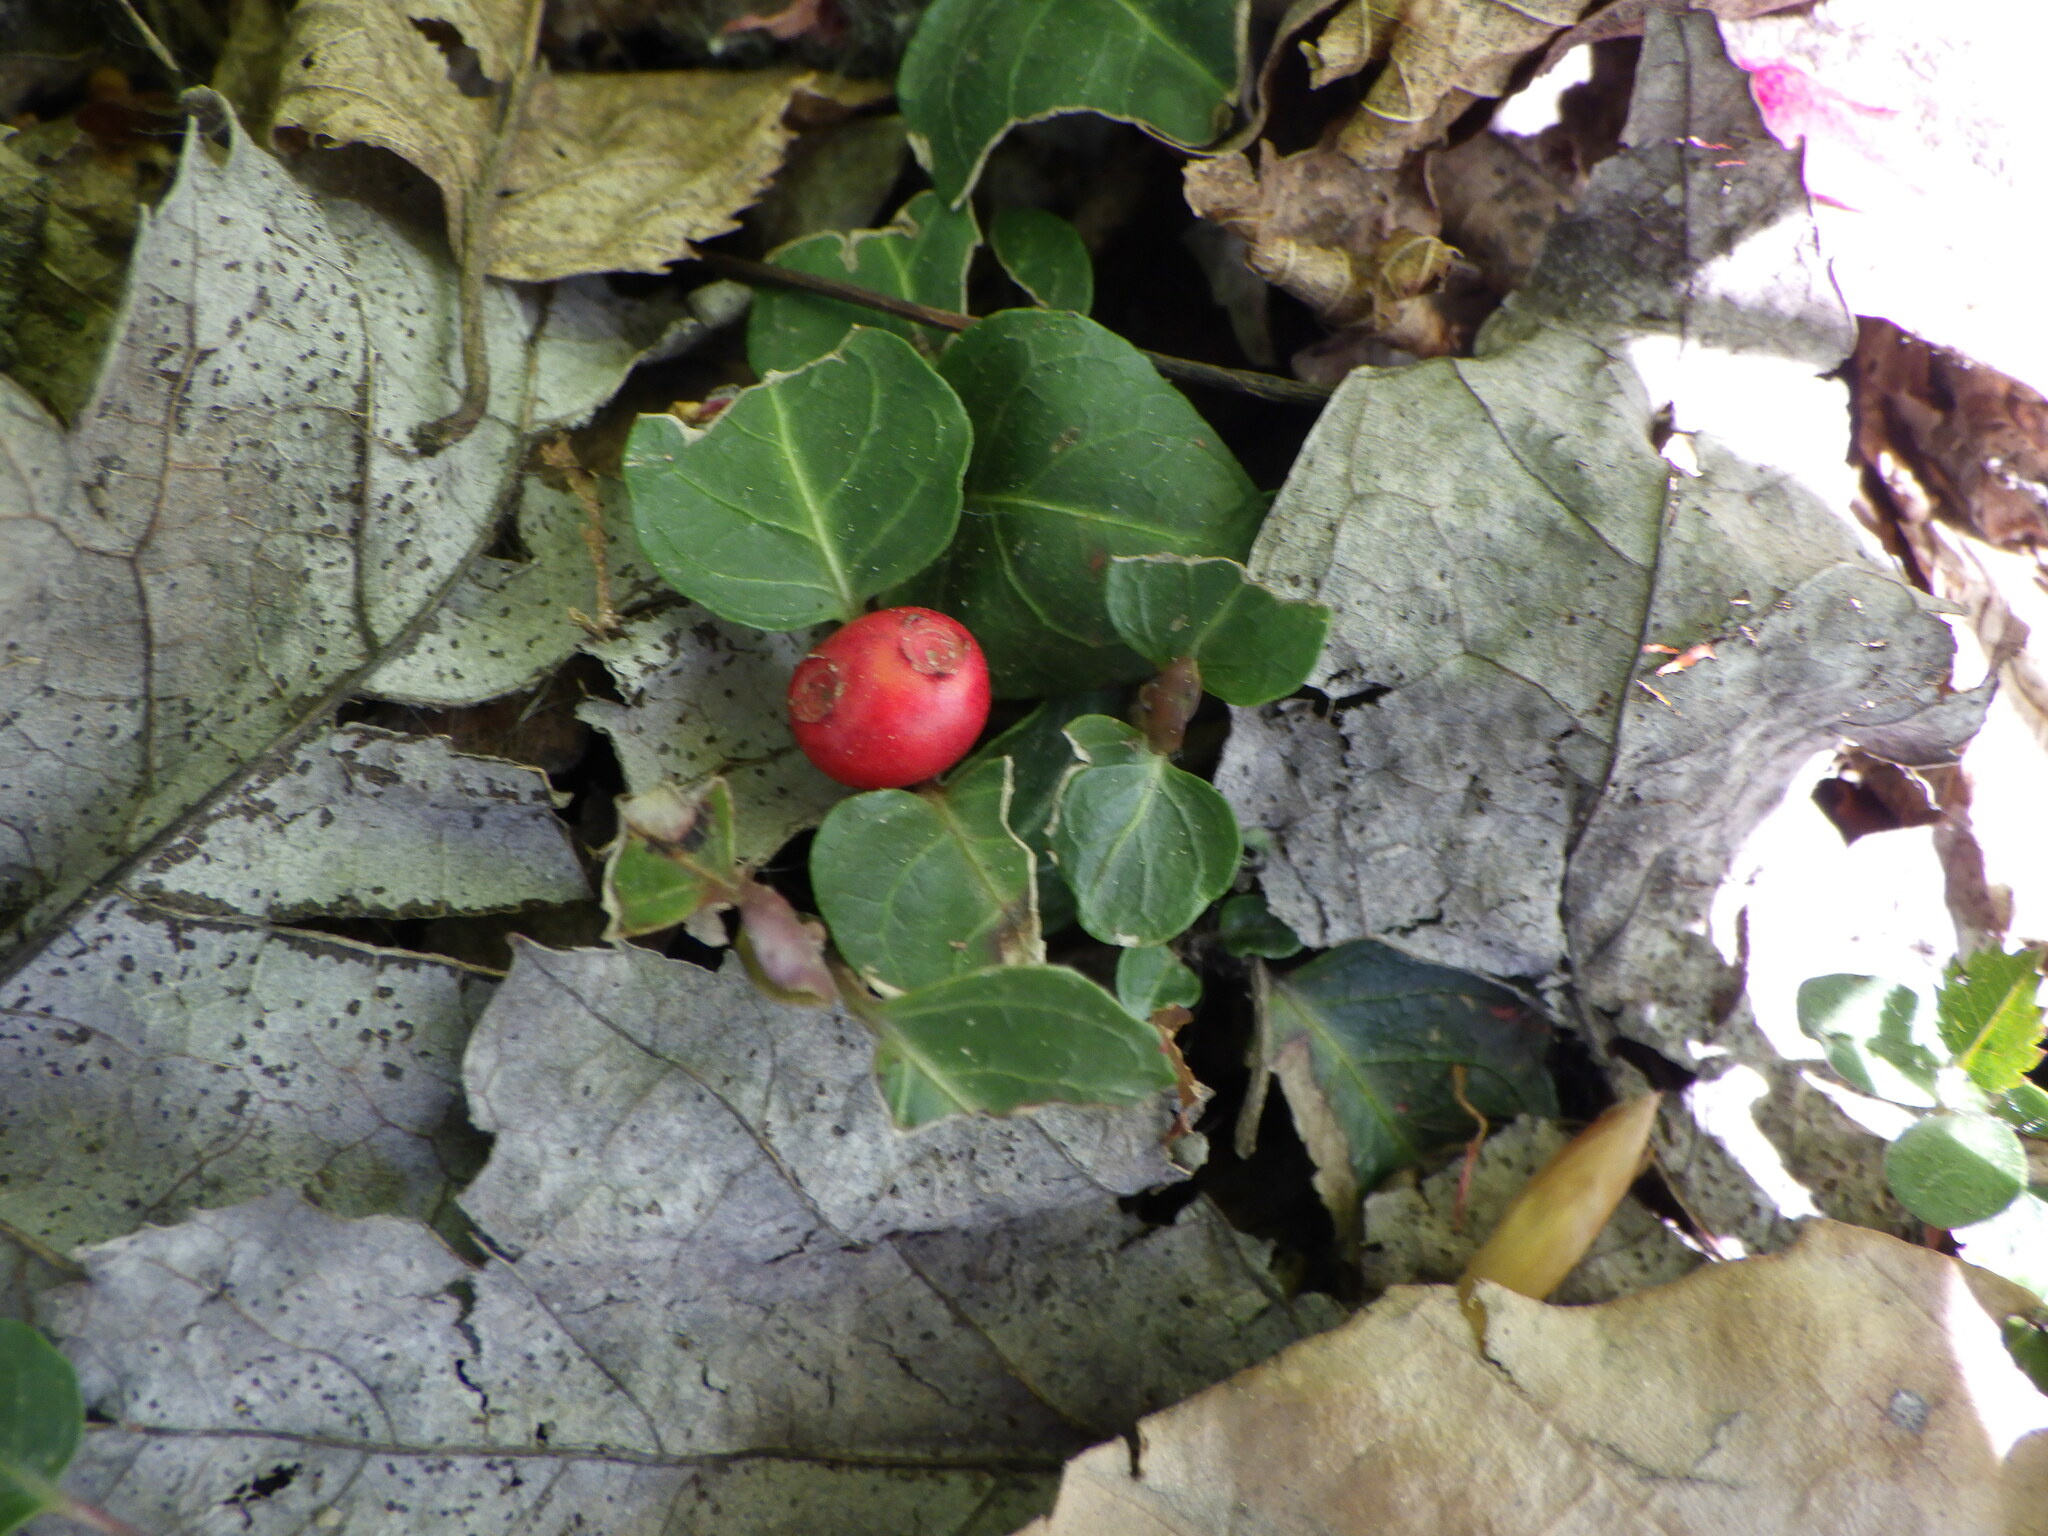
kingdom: Plantae
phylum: Tracheophyta
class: Magnoliopsida
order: Gentianales
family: Rubiaceae
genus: Mitchella
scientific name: Mitchella repens
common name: Partridge-berry
